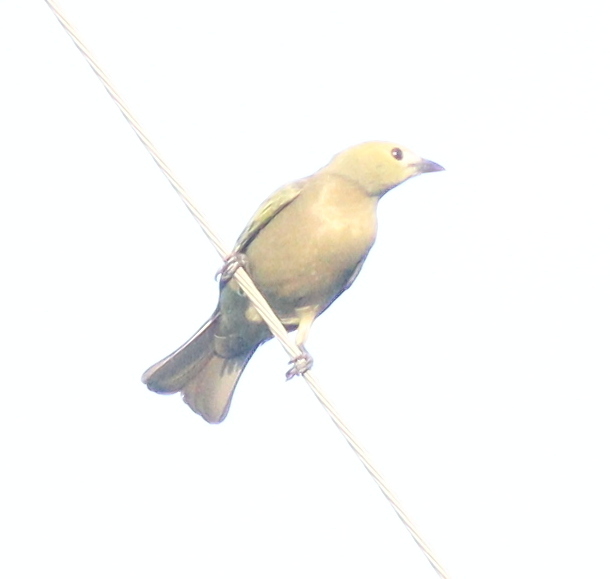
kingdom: Animalia
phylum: Chordata
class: Aves
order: Passeriformes
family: Thraupidae
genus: Thraupis
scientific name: Thraupis palmarum
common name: Palm tanager
